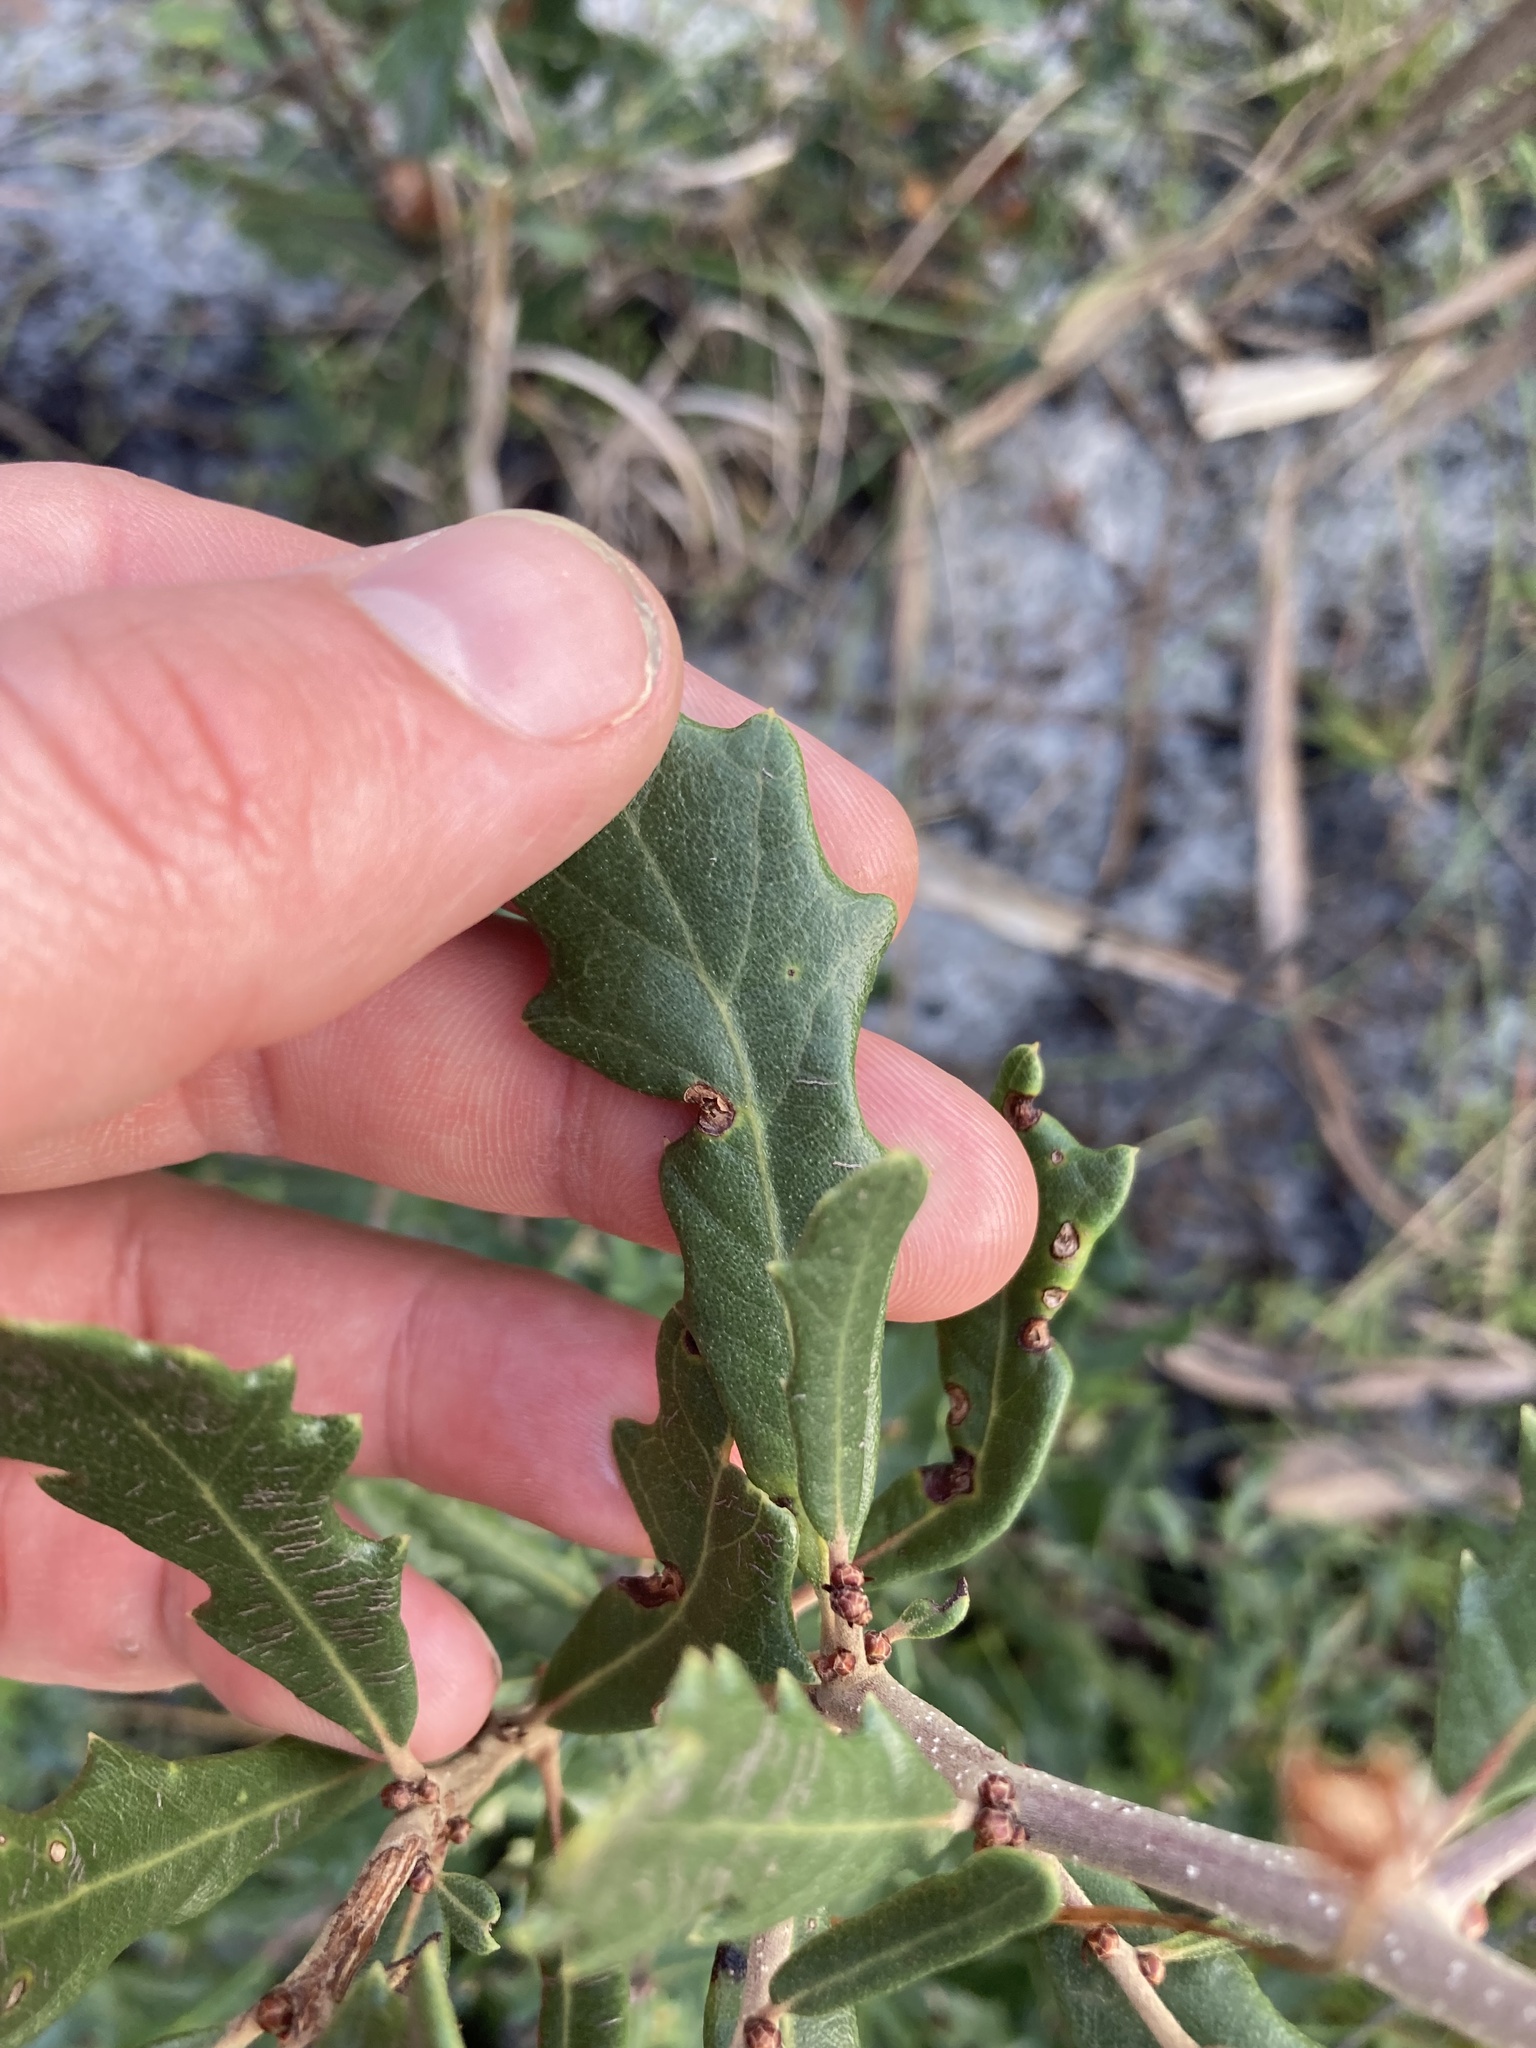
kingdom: Plantae
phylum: Tracheophyta
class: Magnoliopsida
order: Fagales
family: Fagaceae
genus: Quercus
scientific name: Quercus minima
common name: Dwarf live oak
